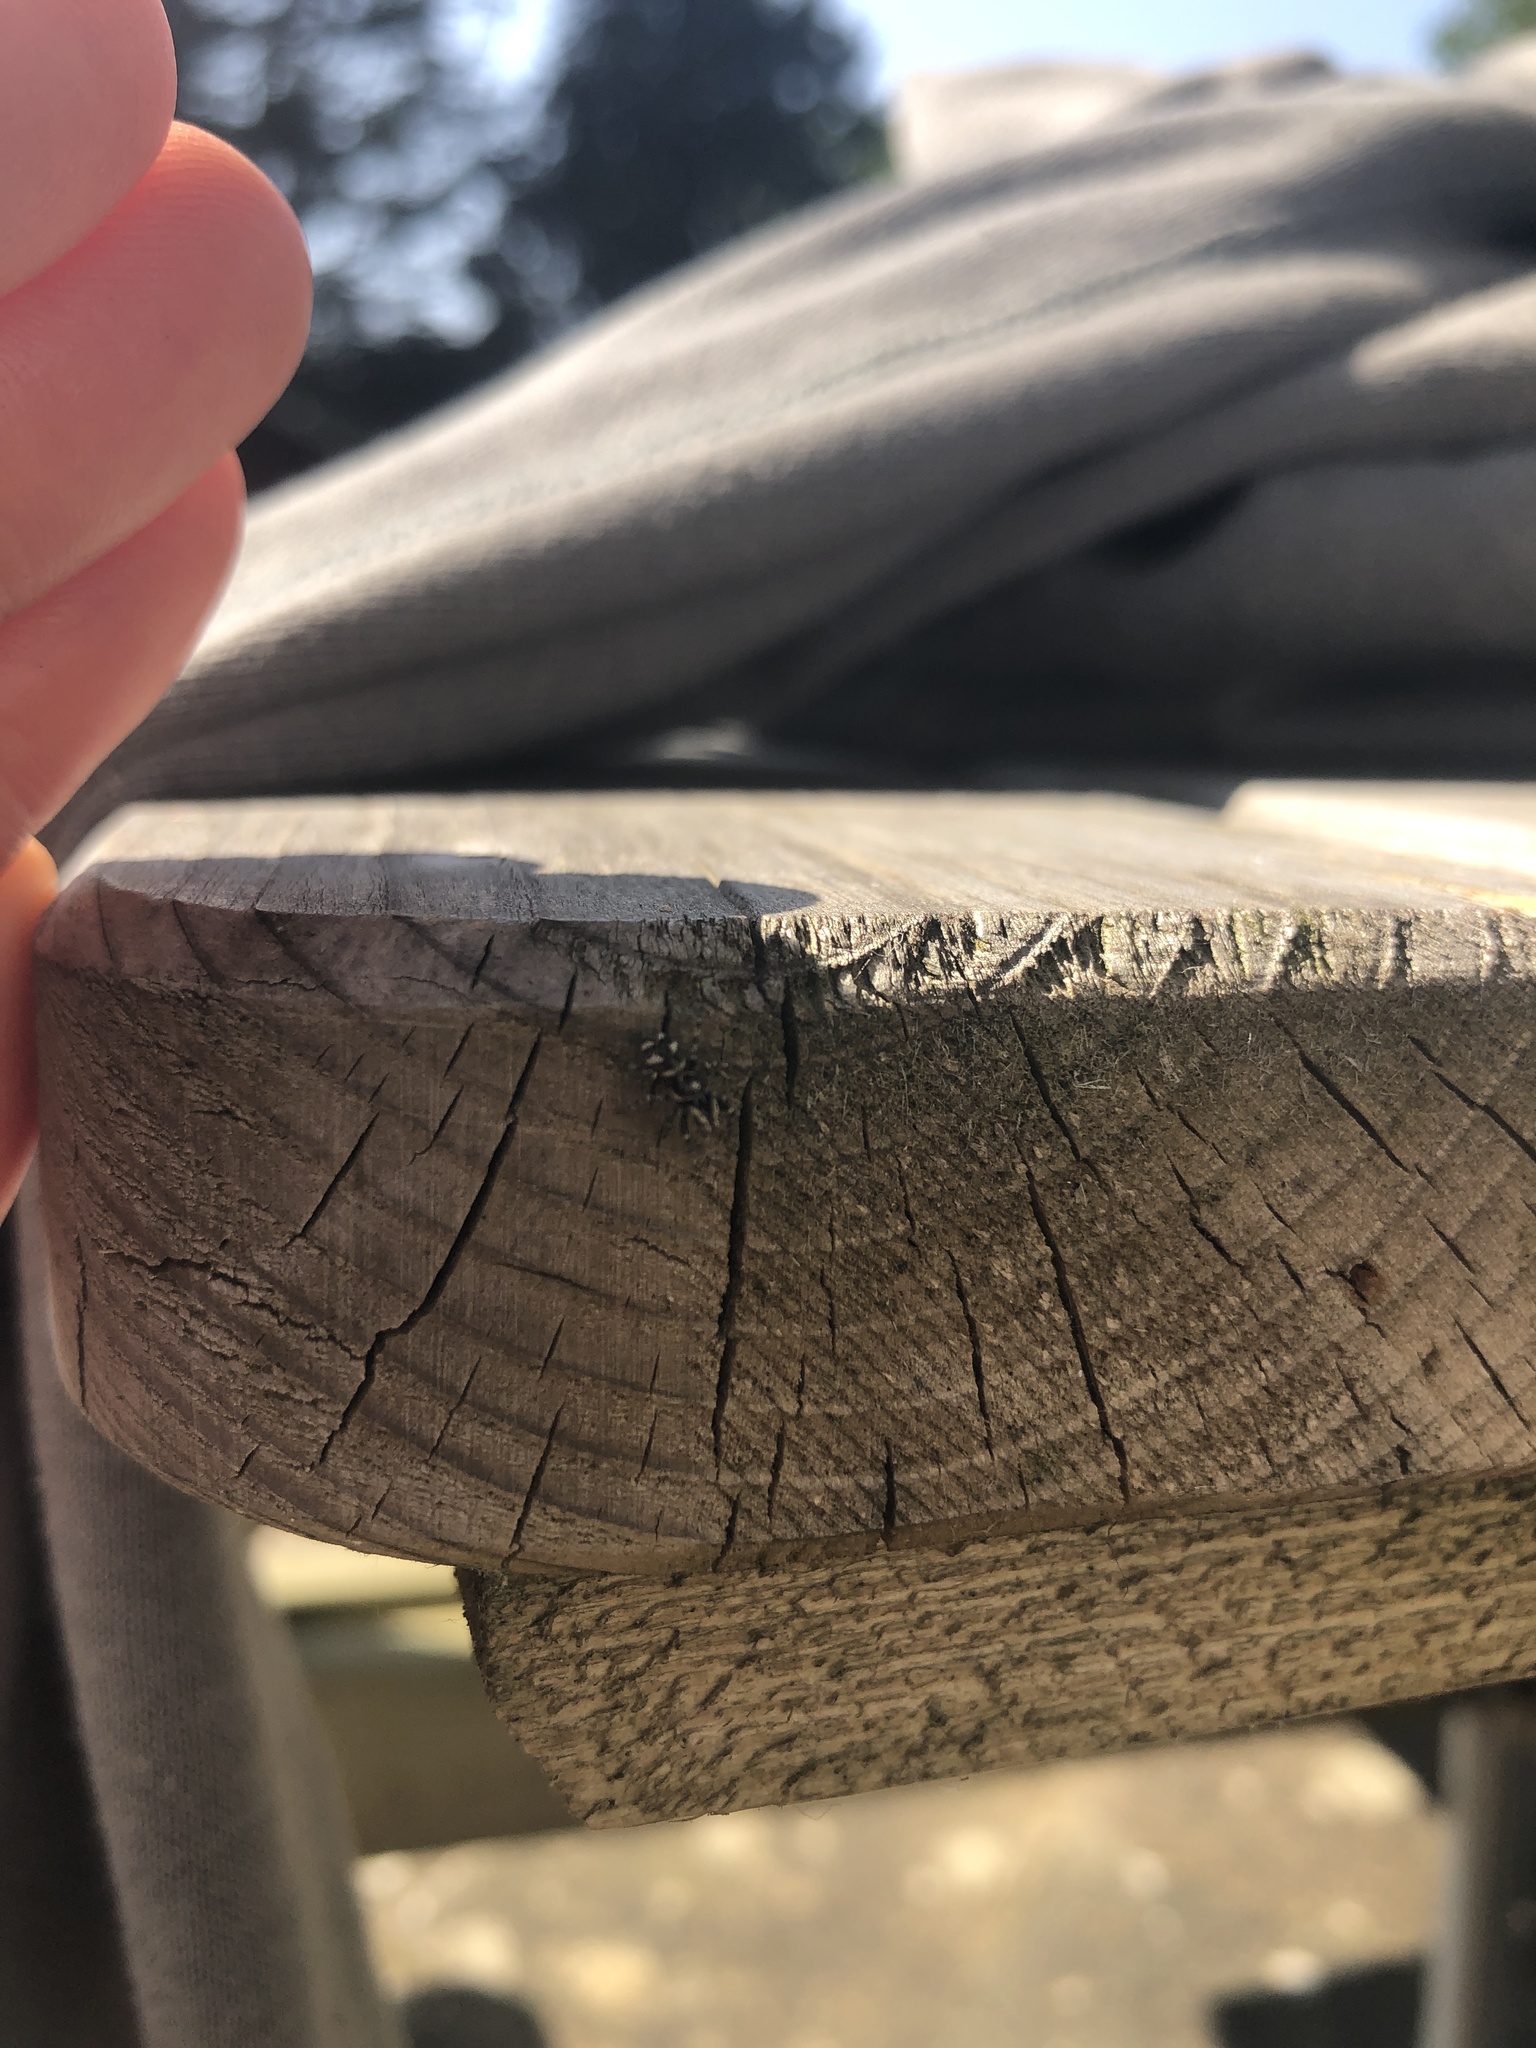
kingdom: Animalia
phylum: Arthropoda
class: Arachnida
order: Araneae
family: Salticidae
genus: Salticus
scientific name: Salticus scenicus
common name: Zebra jumper
